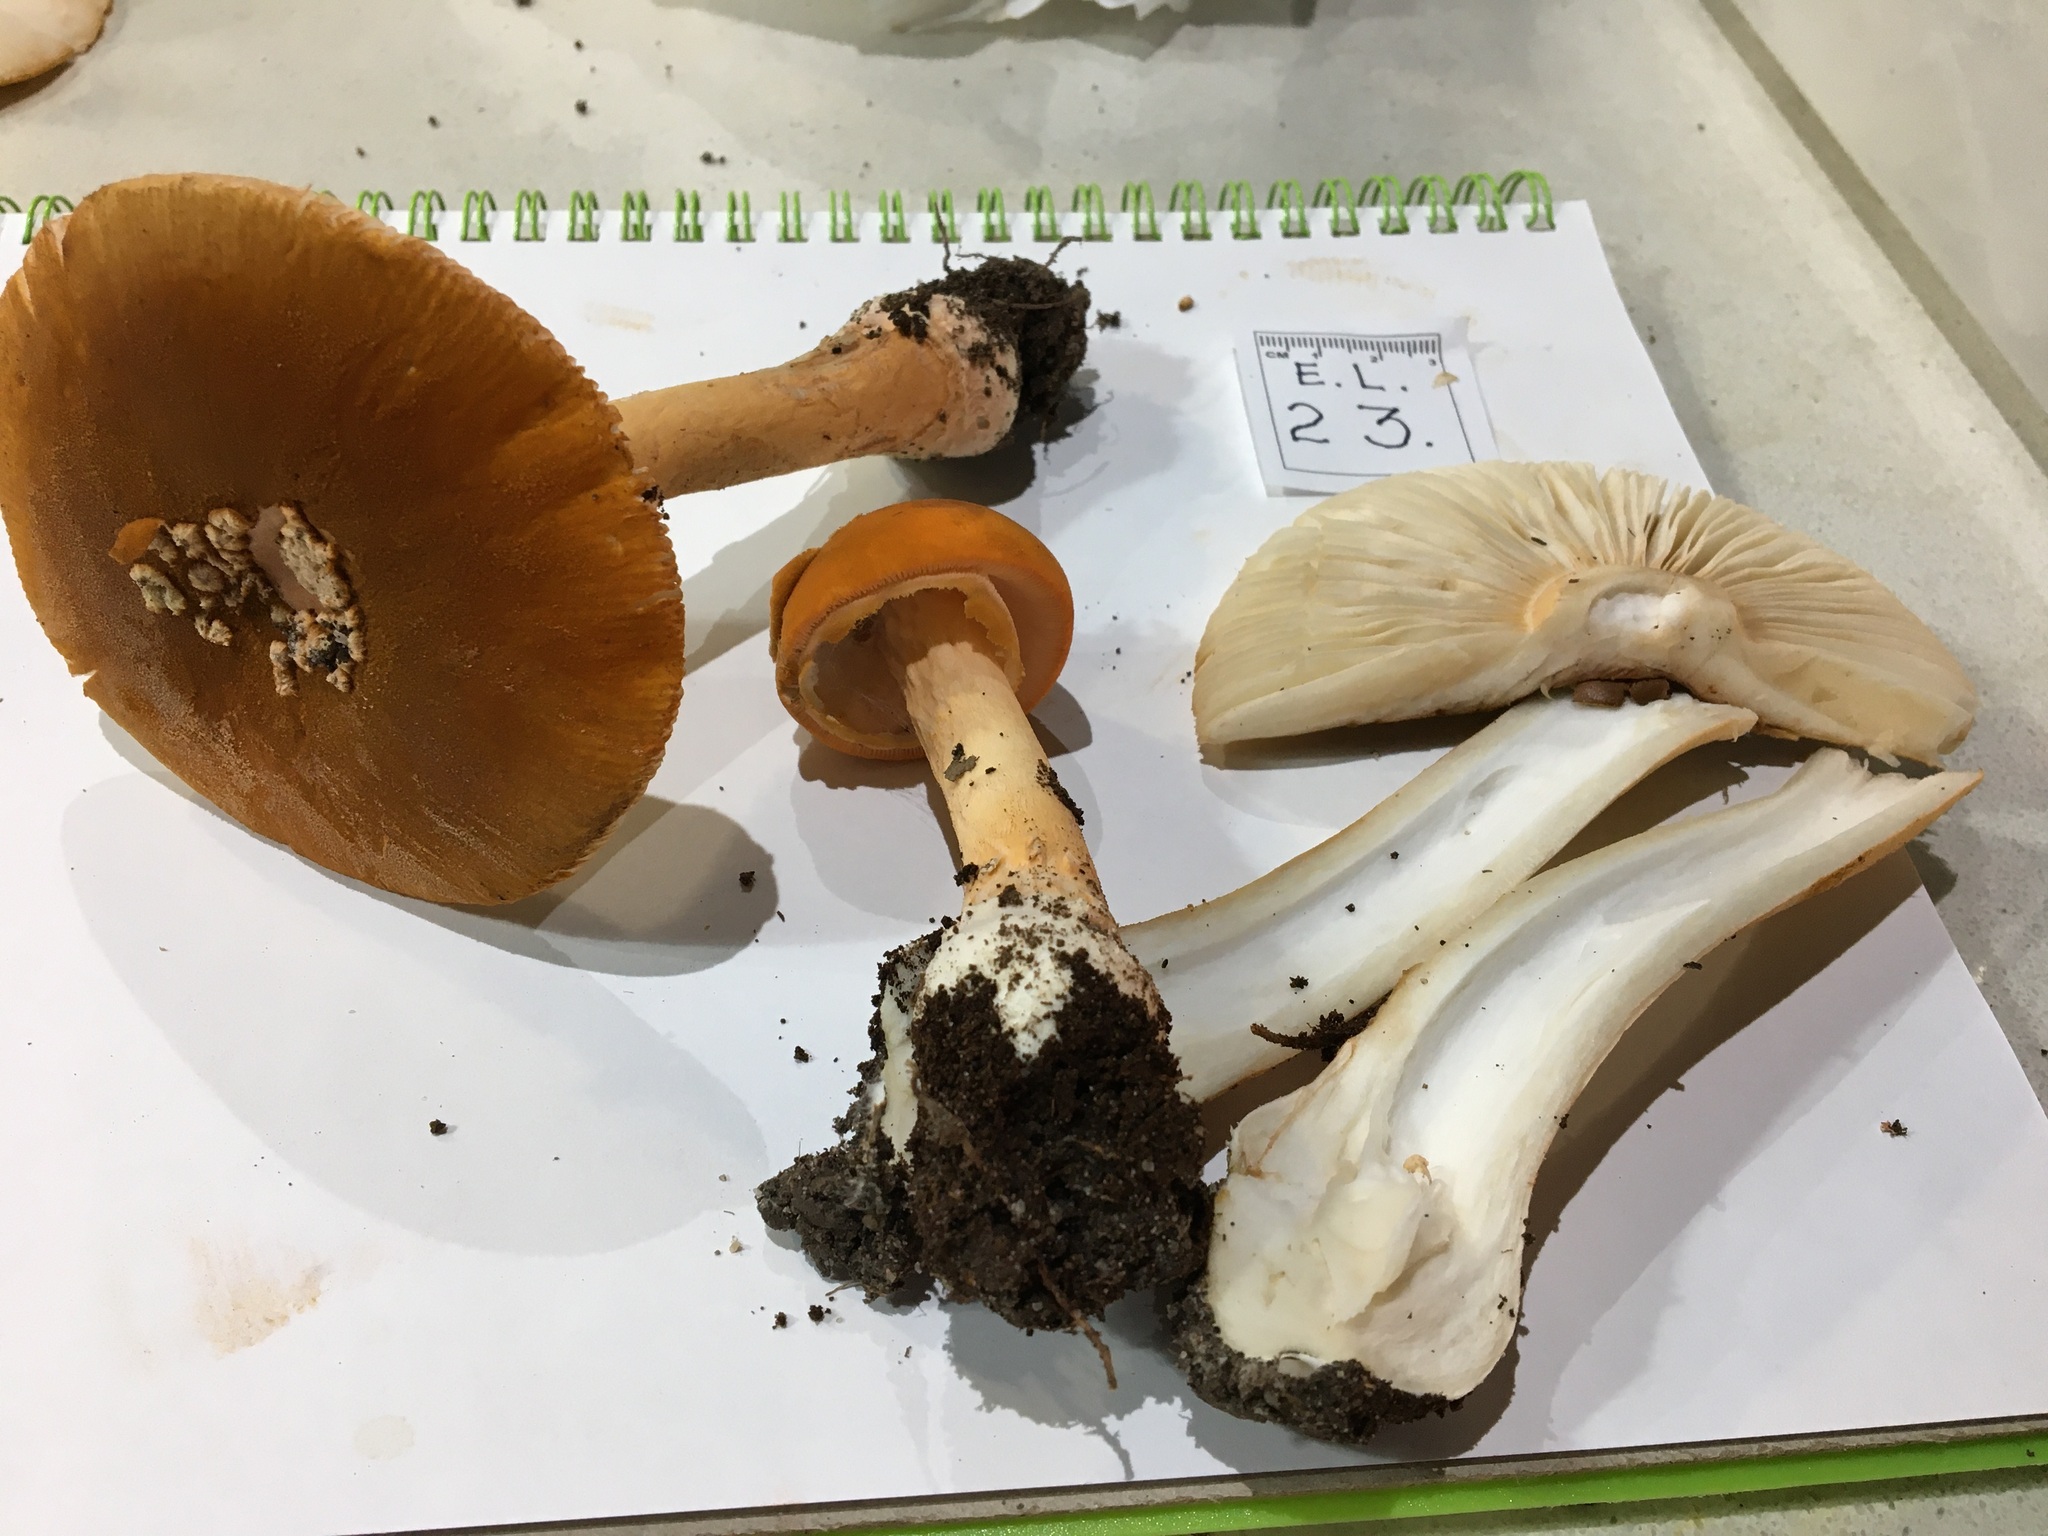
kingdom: Fungi
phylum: Basidiomycota
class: Agaricomycetes
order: Agaricales
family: Amanitaceae
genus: Amanita
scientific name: Amanita armeniaca
